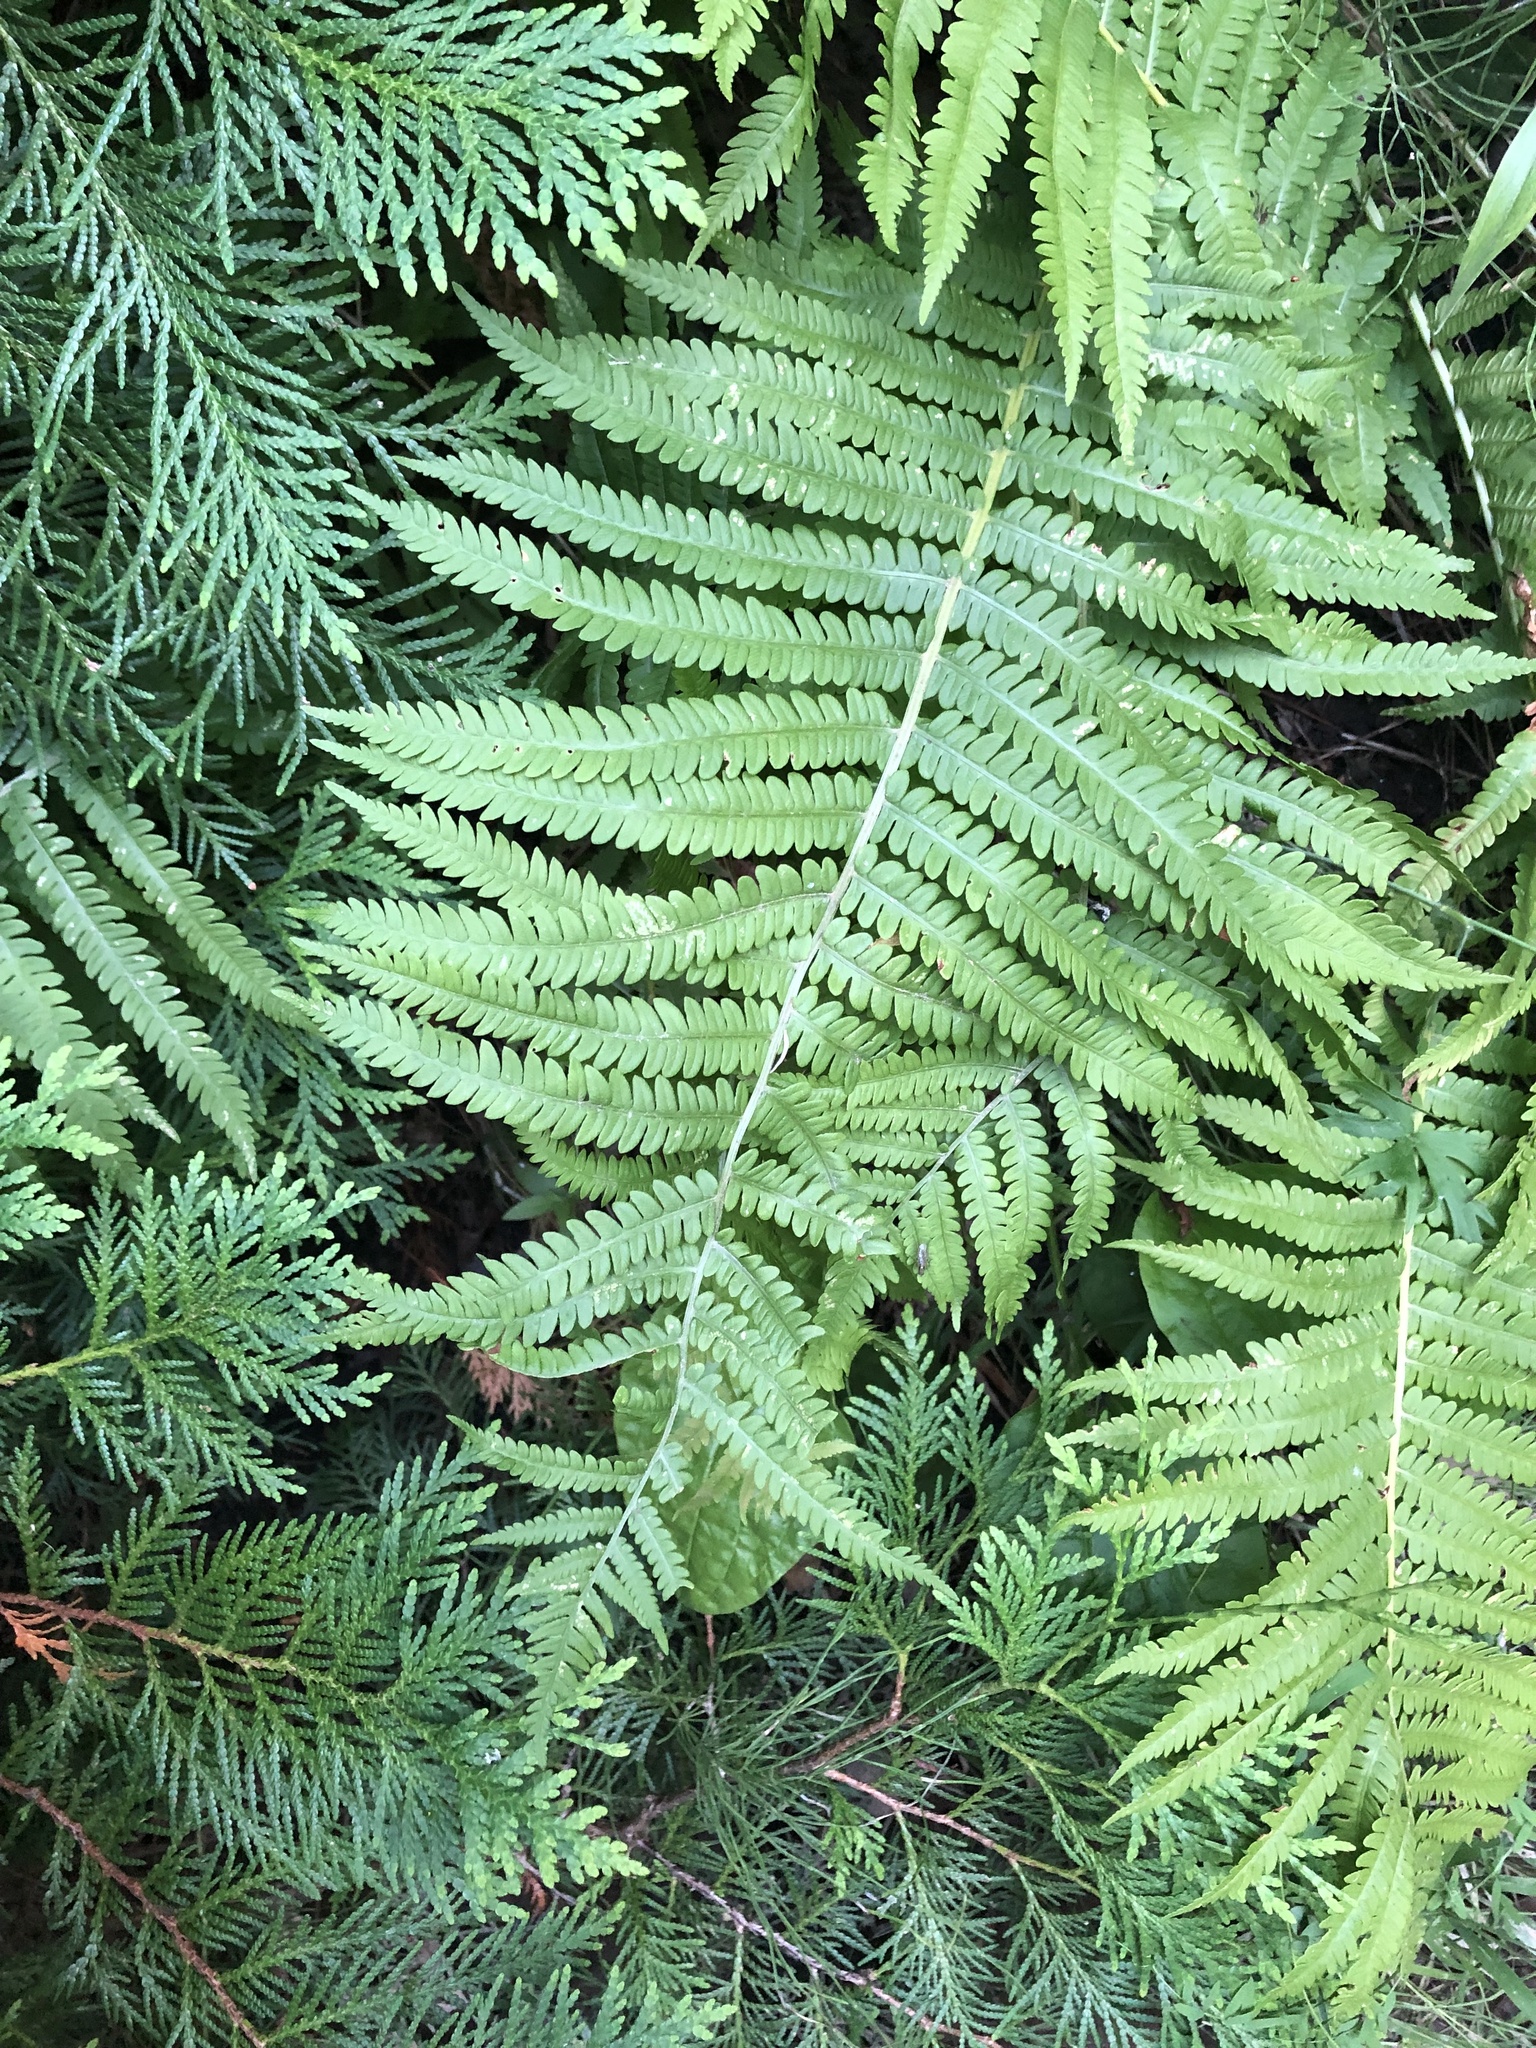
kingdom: Plantae
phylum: Tracheophyta
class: Polypodiopsida
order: Polypodiales
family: Onocleaceae
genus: Matteuccia
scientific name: Matteuccia struthiopteris
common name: Ostrich fern
